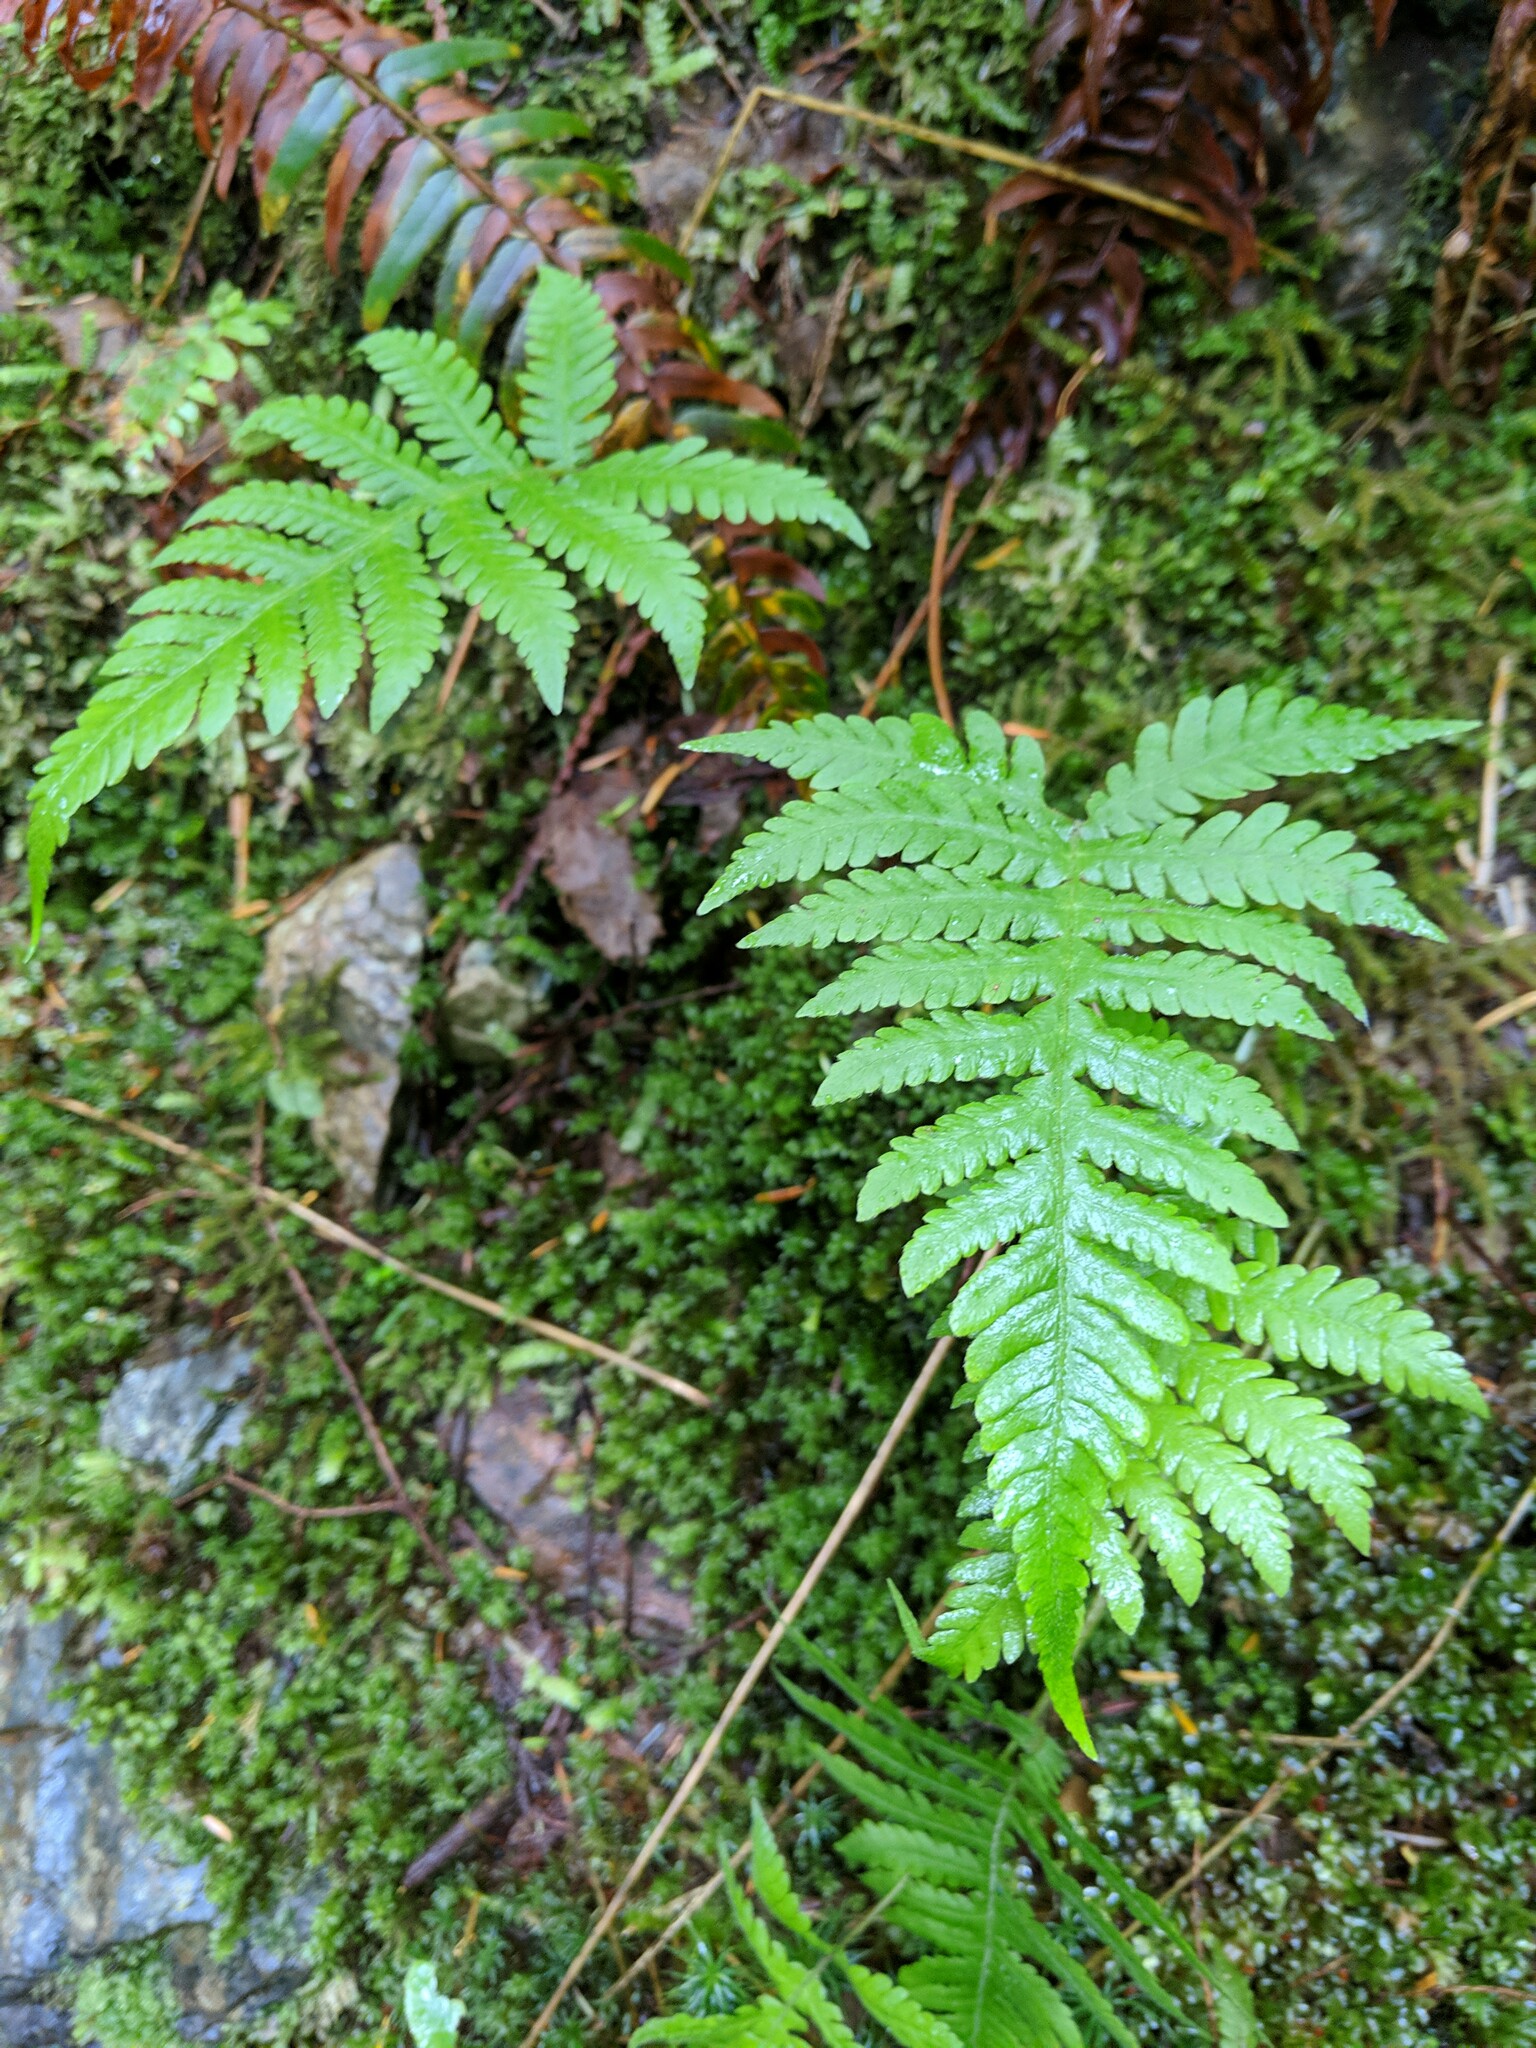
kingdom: Plantae
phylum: Tracheophyta
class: Polypodiopsida
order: Polypodiales
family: Thelypteridaceae
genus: Phegopteris
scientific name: Phegopteris connectilis
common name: Beech fern
